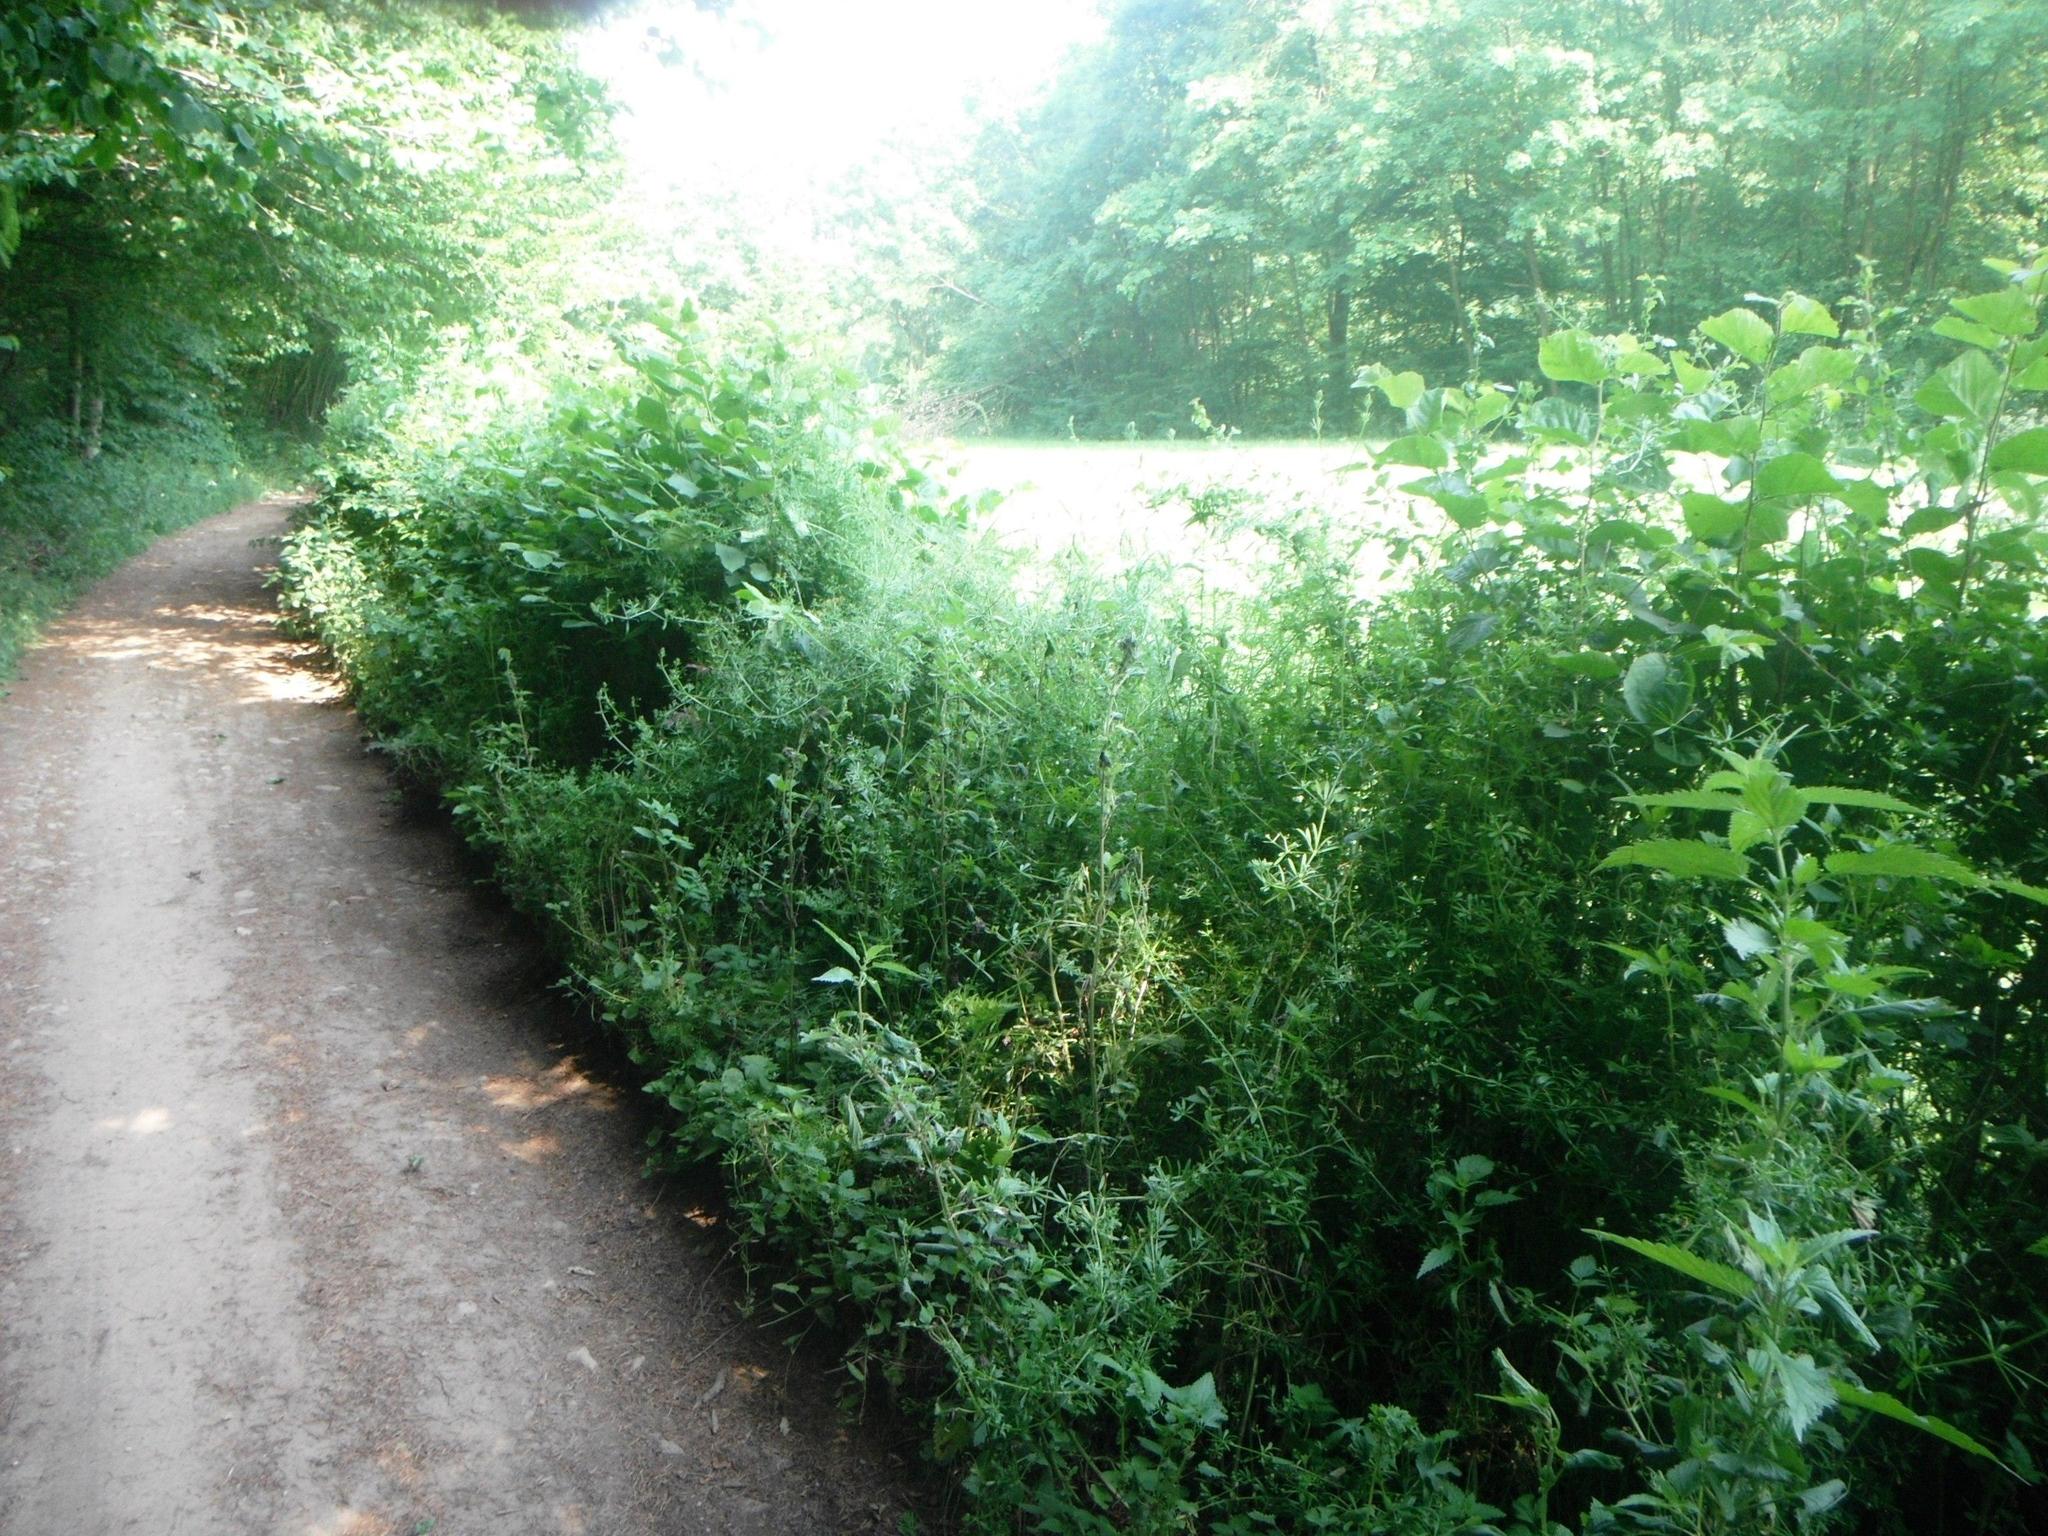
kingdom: Plantae
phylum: Tracheophyta
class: Magnoliopsida
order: Gentianales
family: Rubiaceae
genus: Galium
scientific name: Galium aparine
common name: Cleavers
